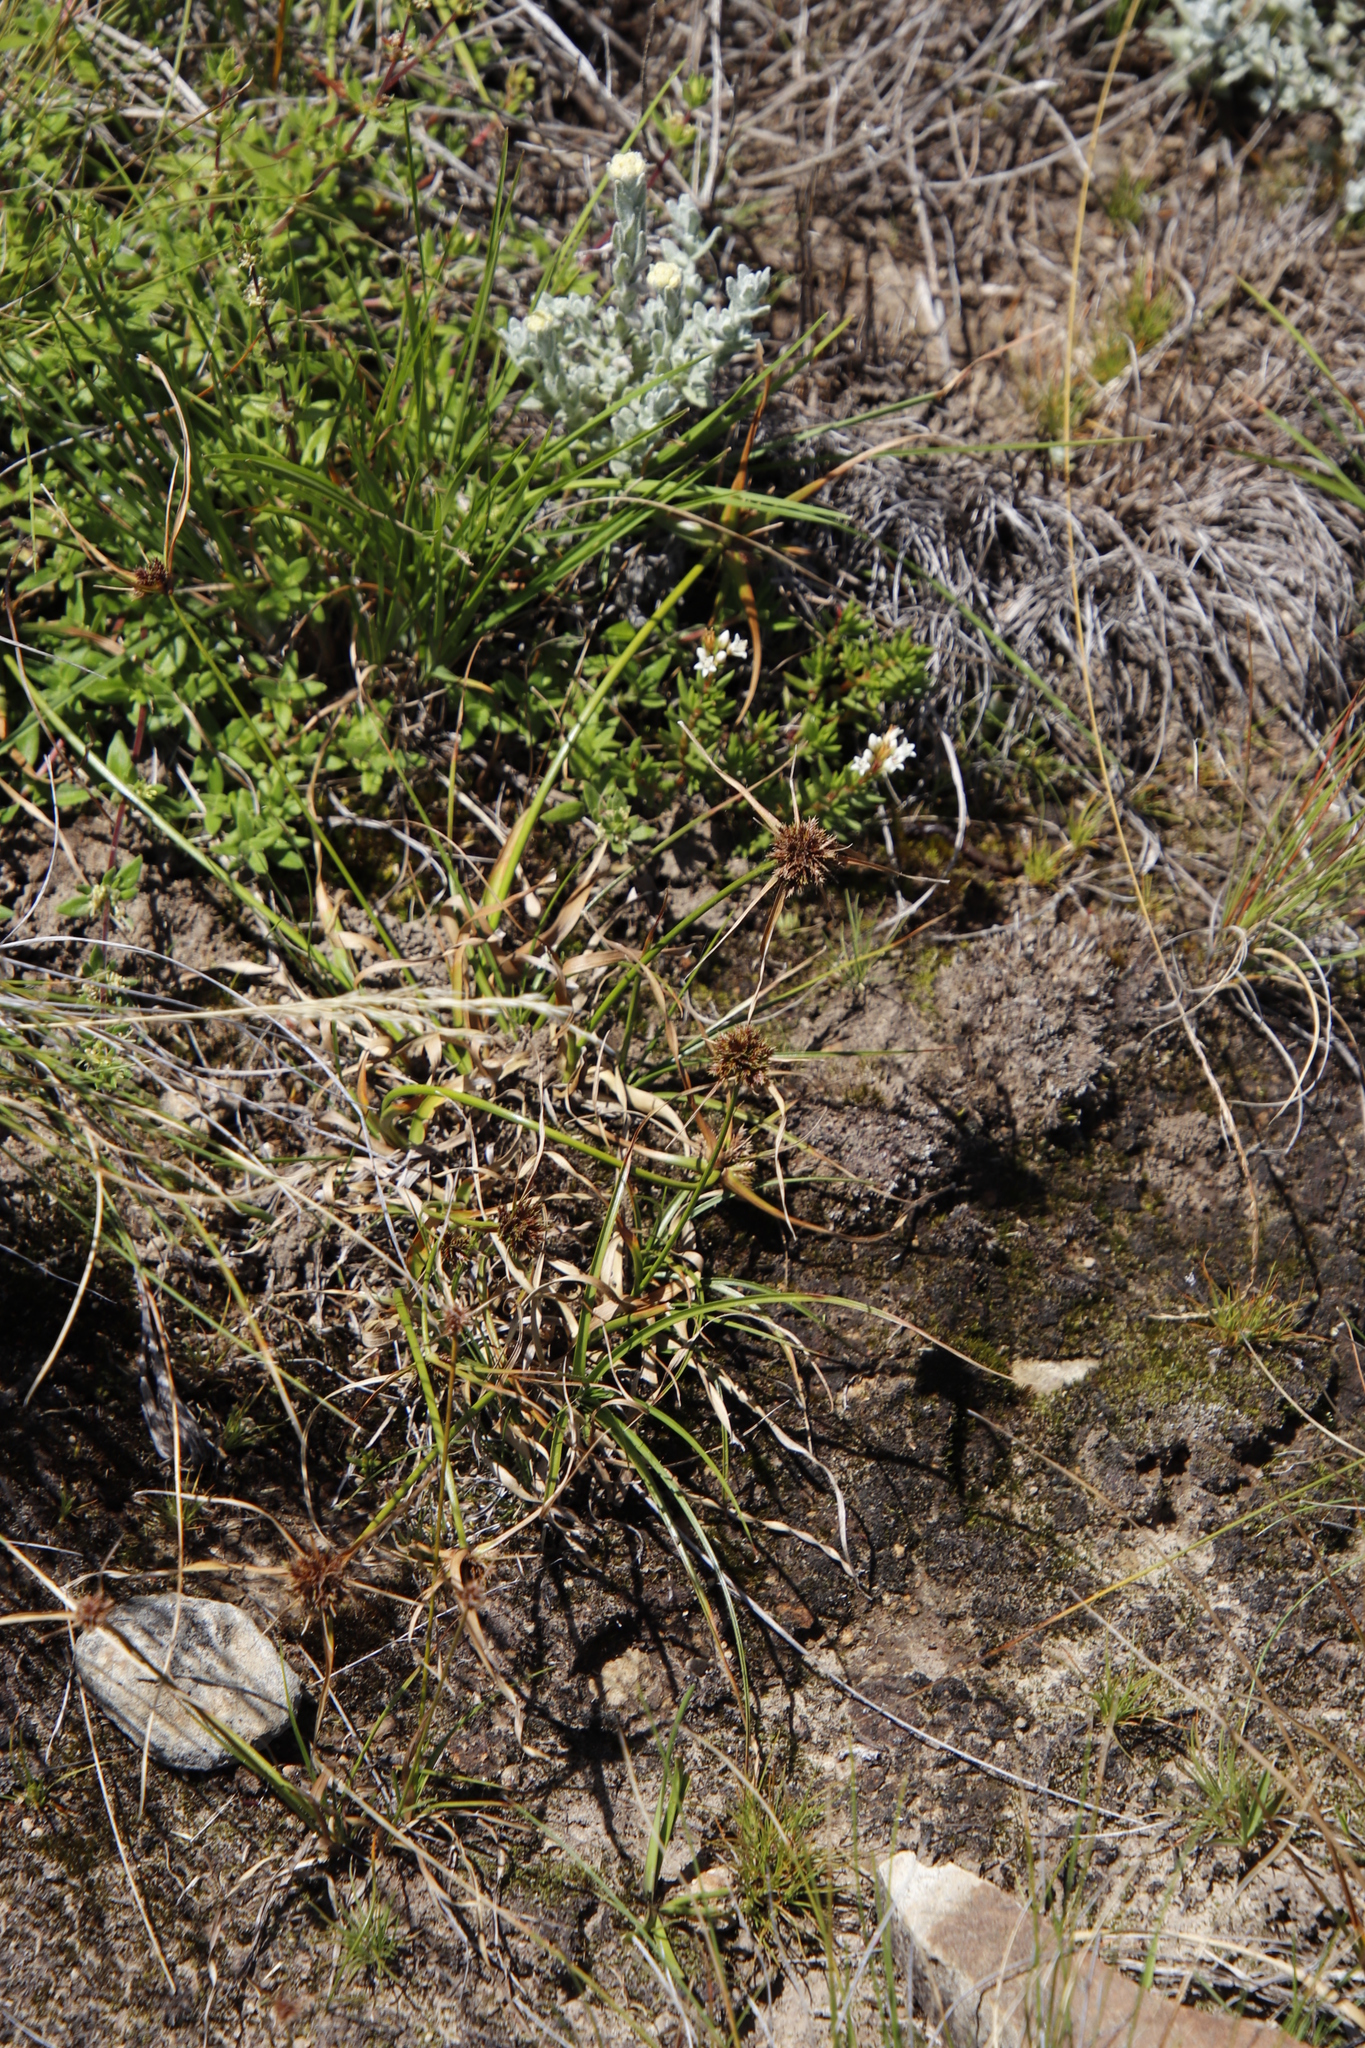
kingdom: Plantae
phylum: Tracheophyta
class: Liliopsida
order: Poales
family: Cyperaceae
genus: Cyperus
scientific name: Cyperus schlechteri
